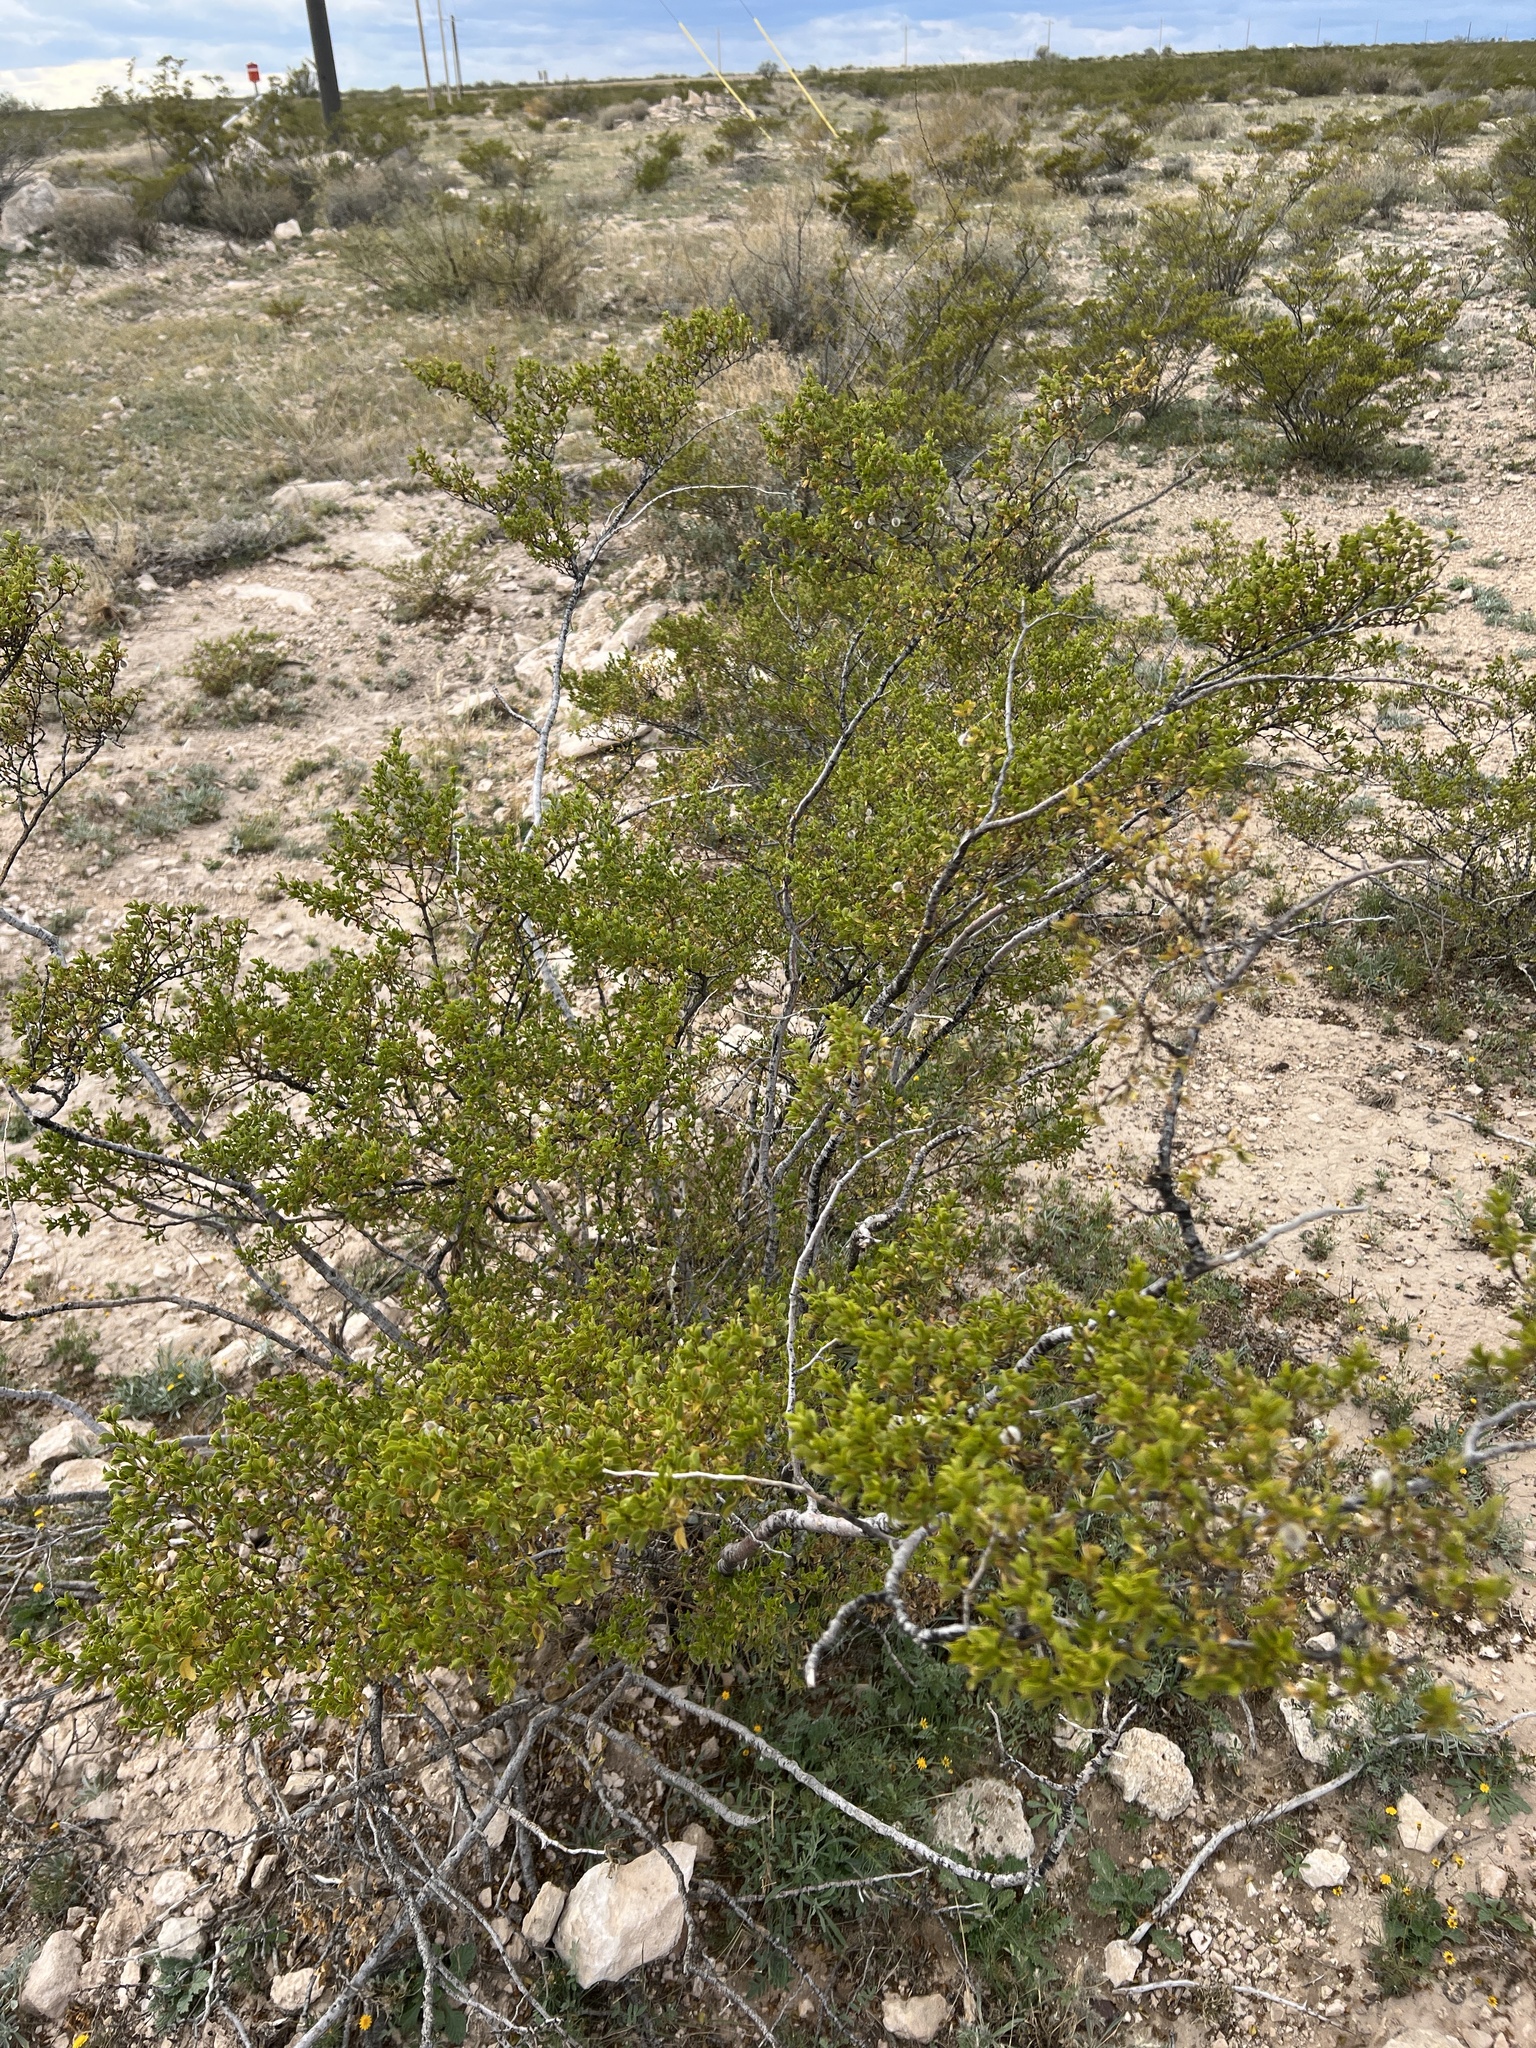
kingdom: Plantae
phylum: Tracheophyta
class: Magnoliopsida
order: Zygophyllales
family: Zygophyllaceae
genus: Larrea
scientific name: Larrea tridentata
